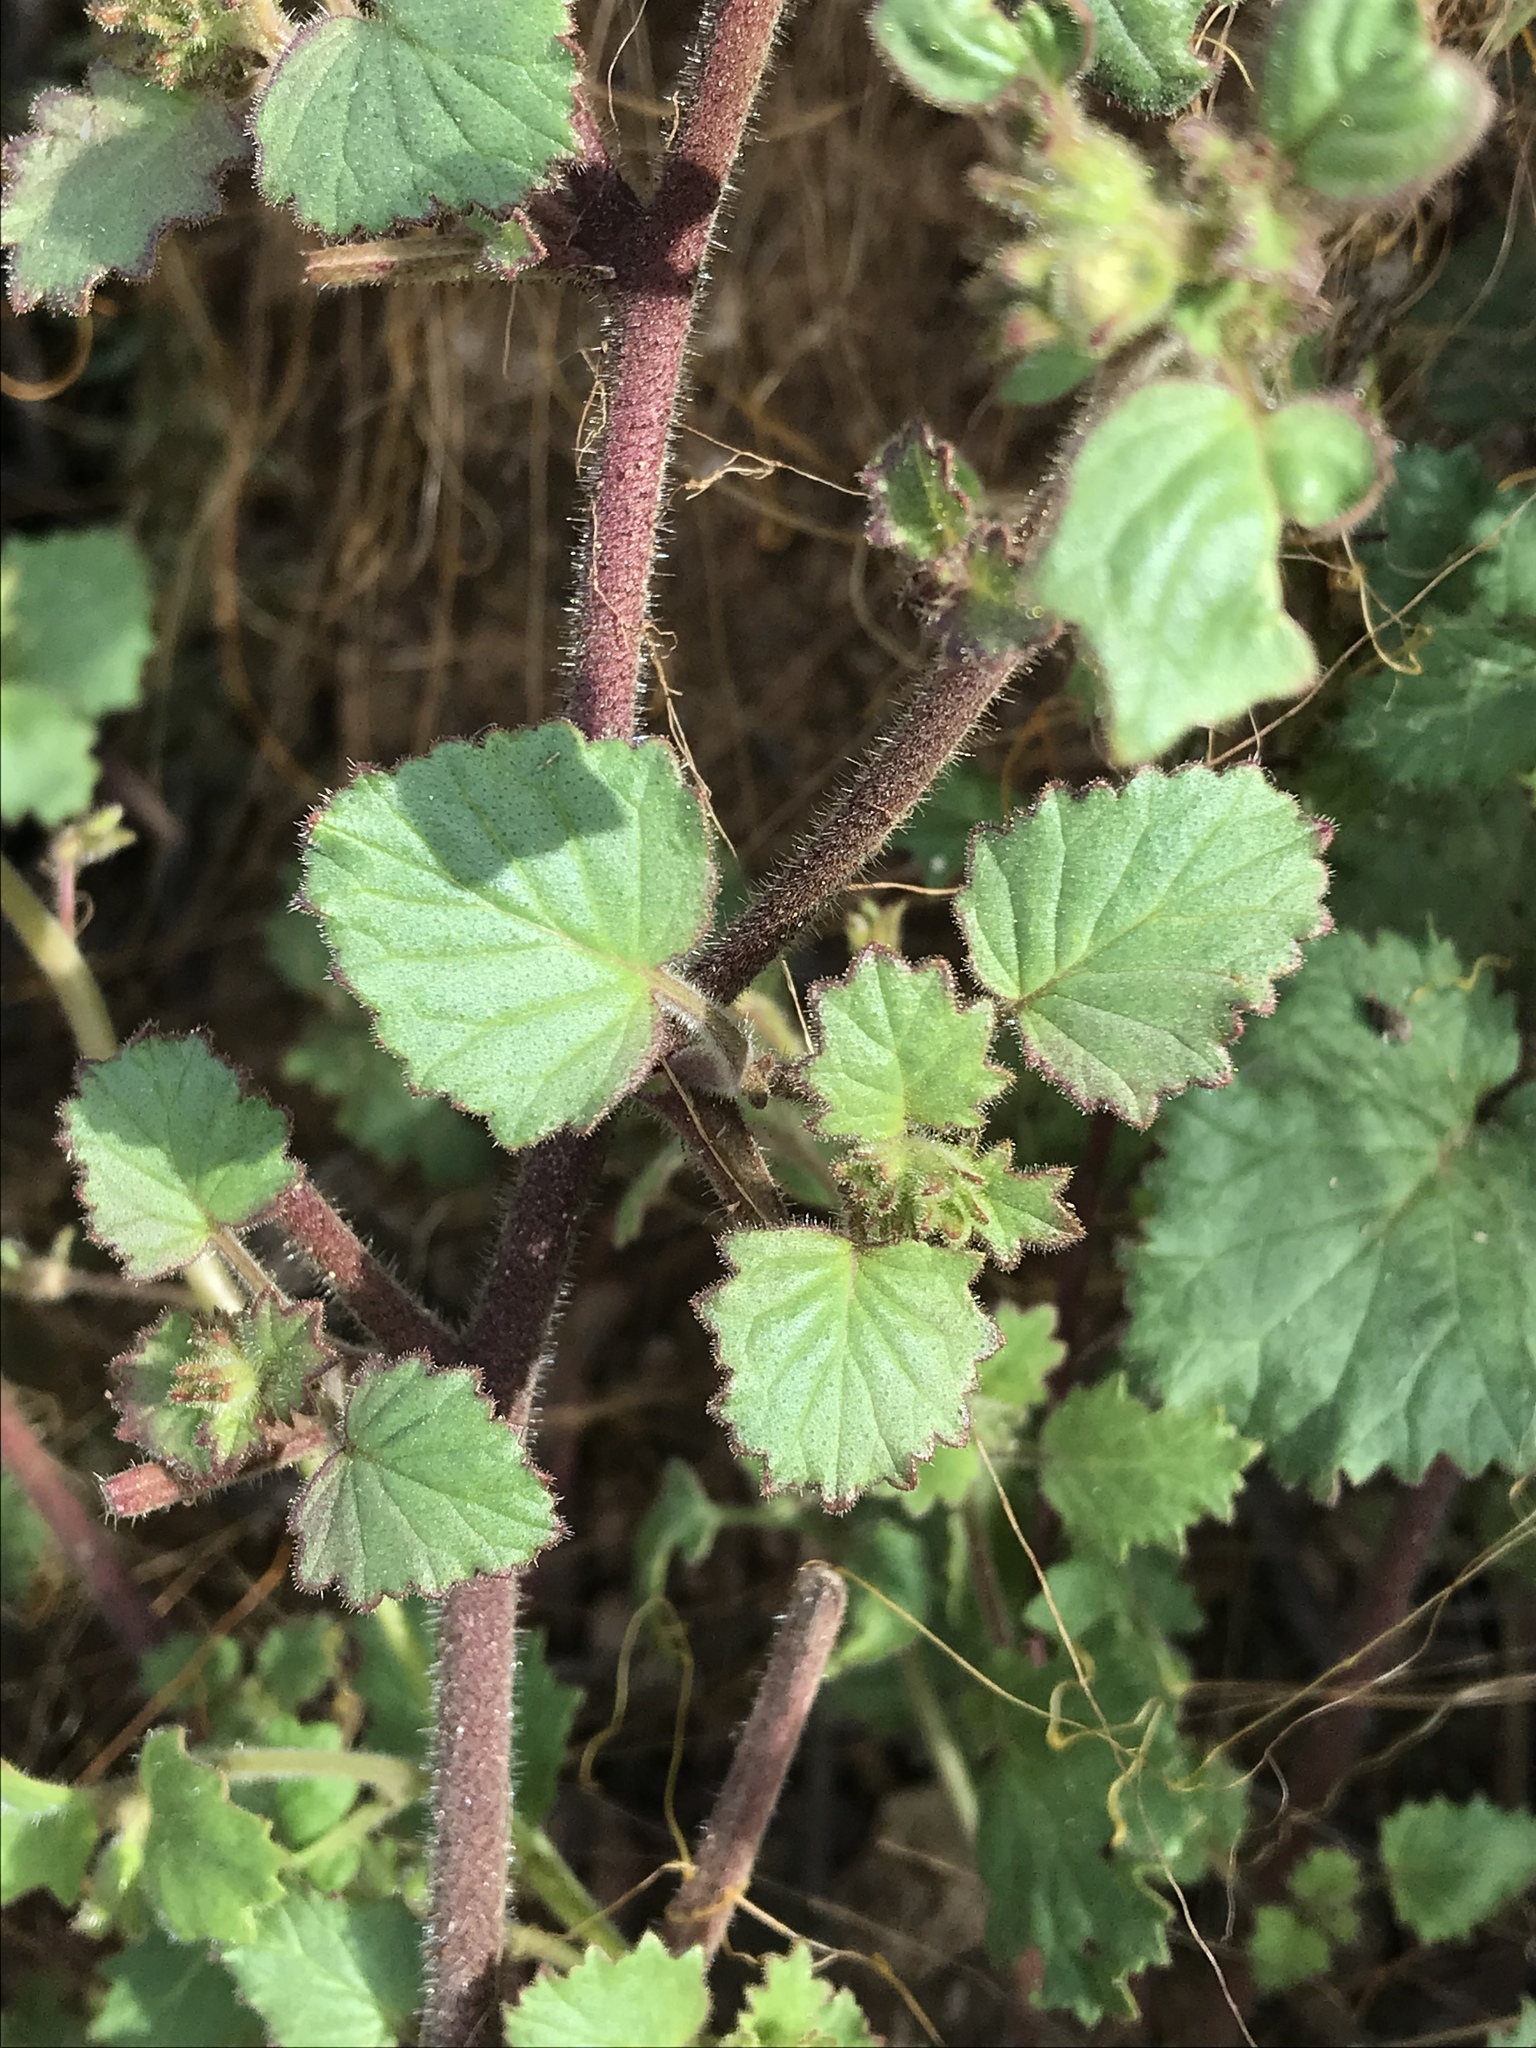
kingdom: Plantae
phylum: Tracheophyta
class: Magnoliopsida
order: Boraginales
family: Hydrophyllaceae
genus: Phacelia
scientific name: Phacelia minor
